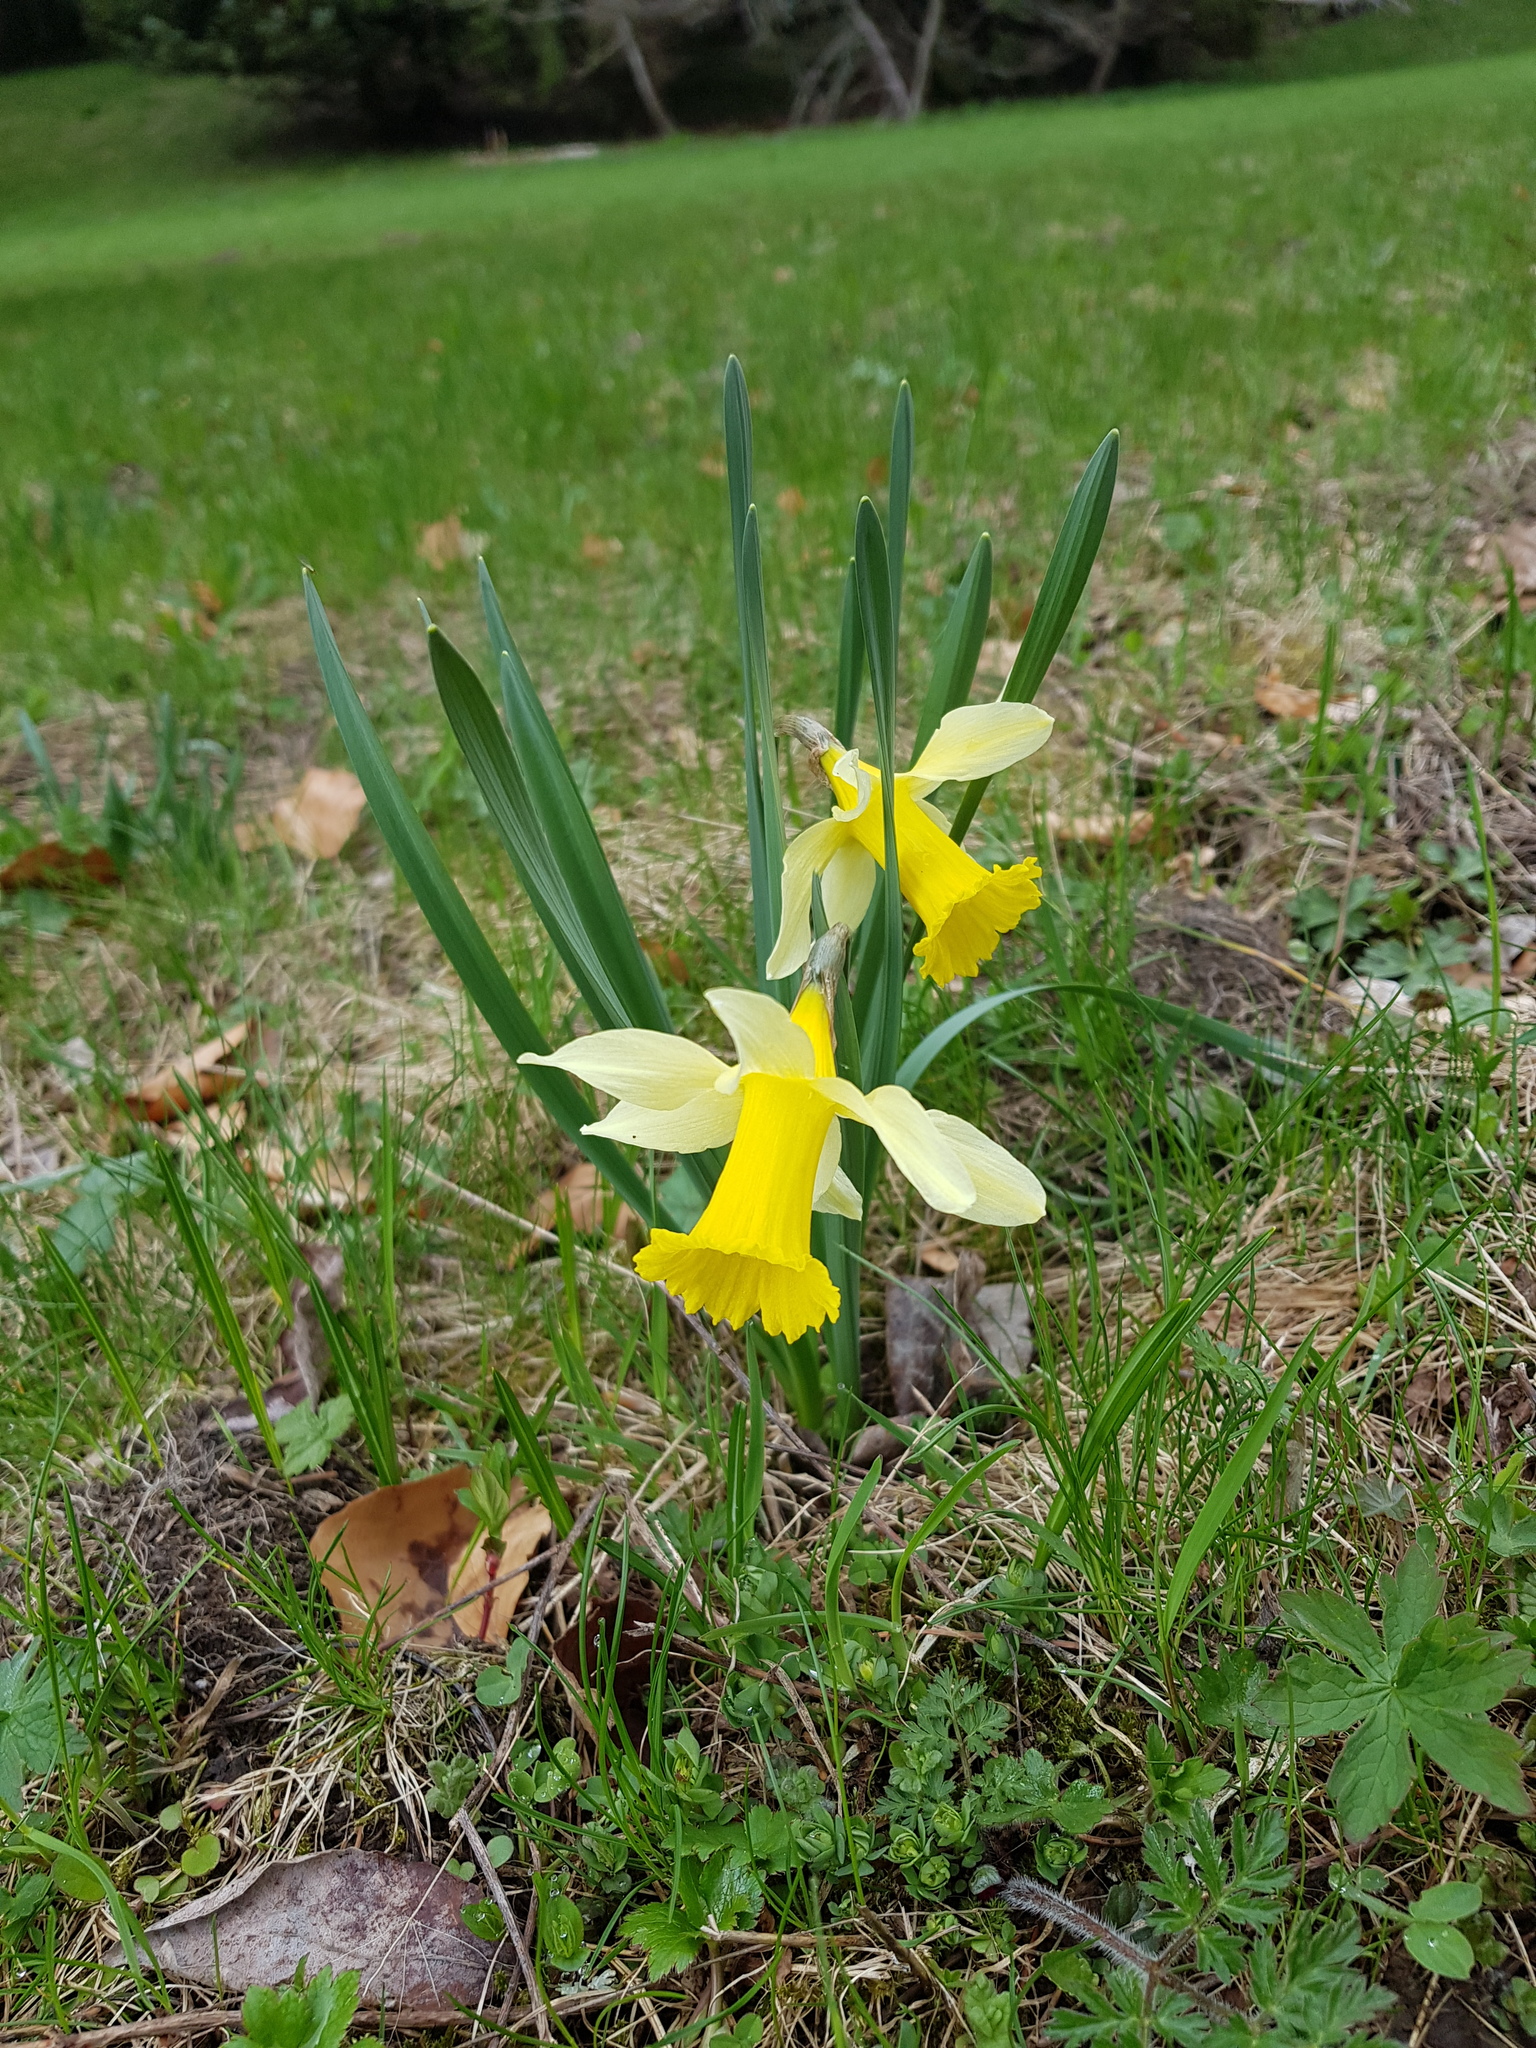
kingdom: Plantae
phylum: Tracheophyta
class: Liliopsida
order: Asparagales
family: Amaryllidaceae
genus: Narcissus
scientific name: Narcissus pseudonarcissus
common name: Daffodil
